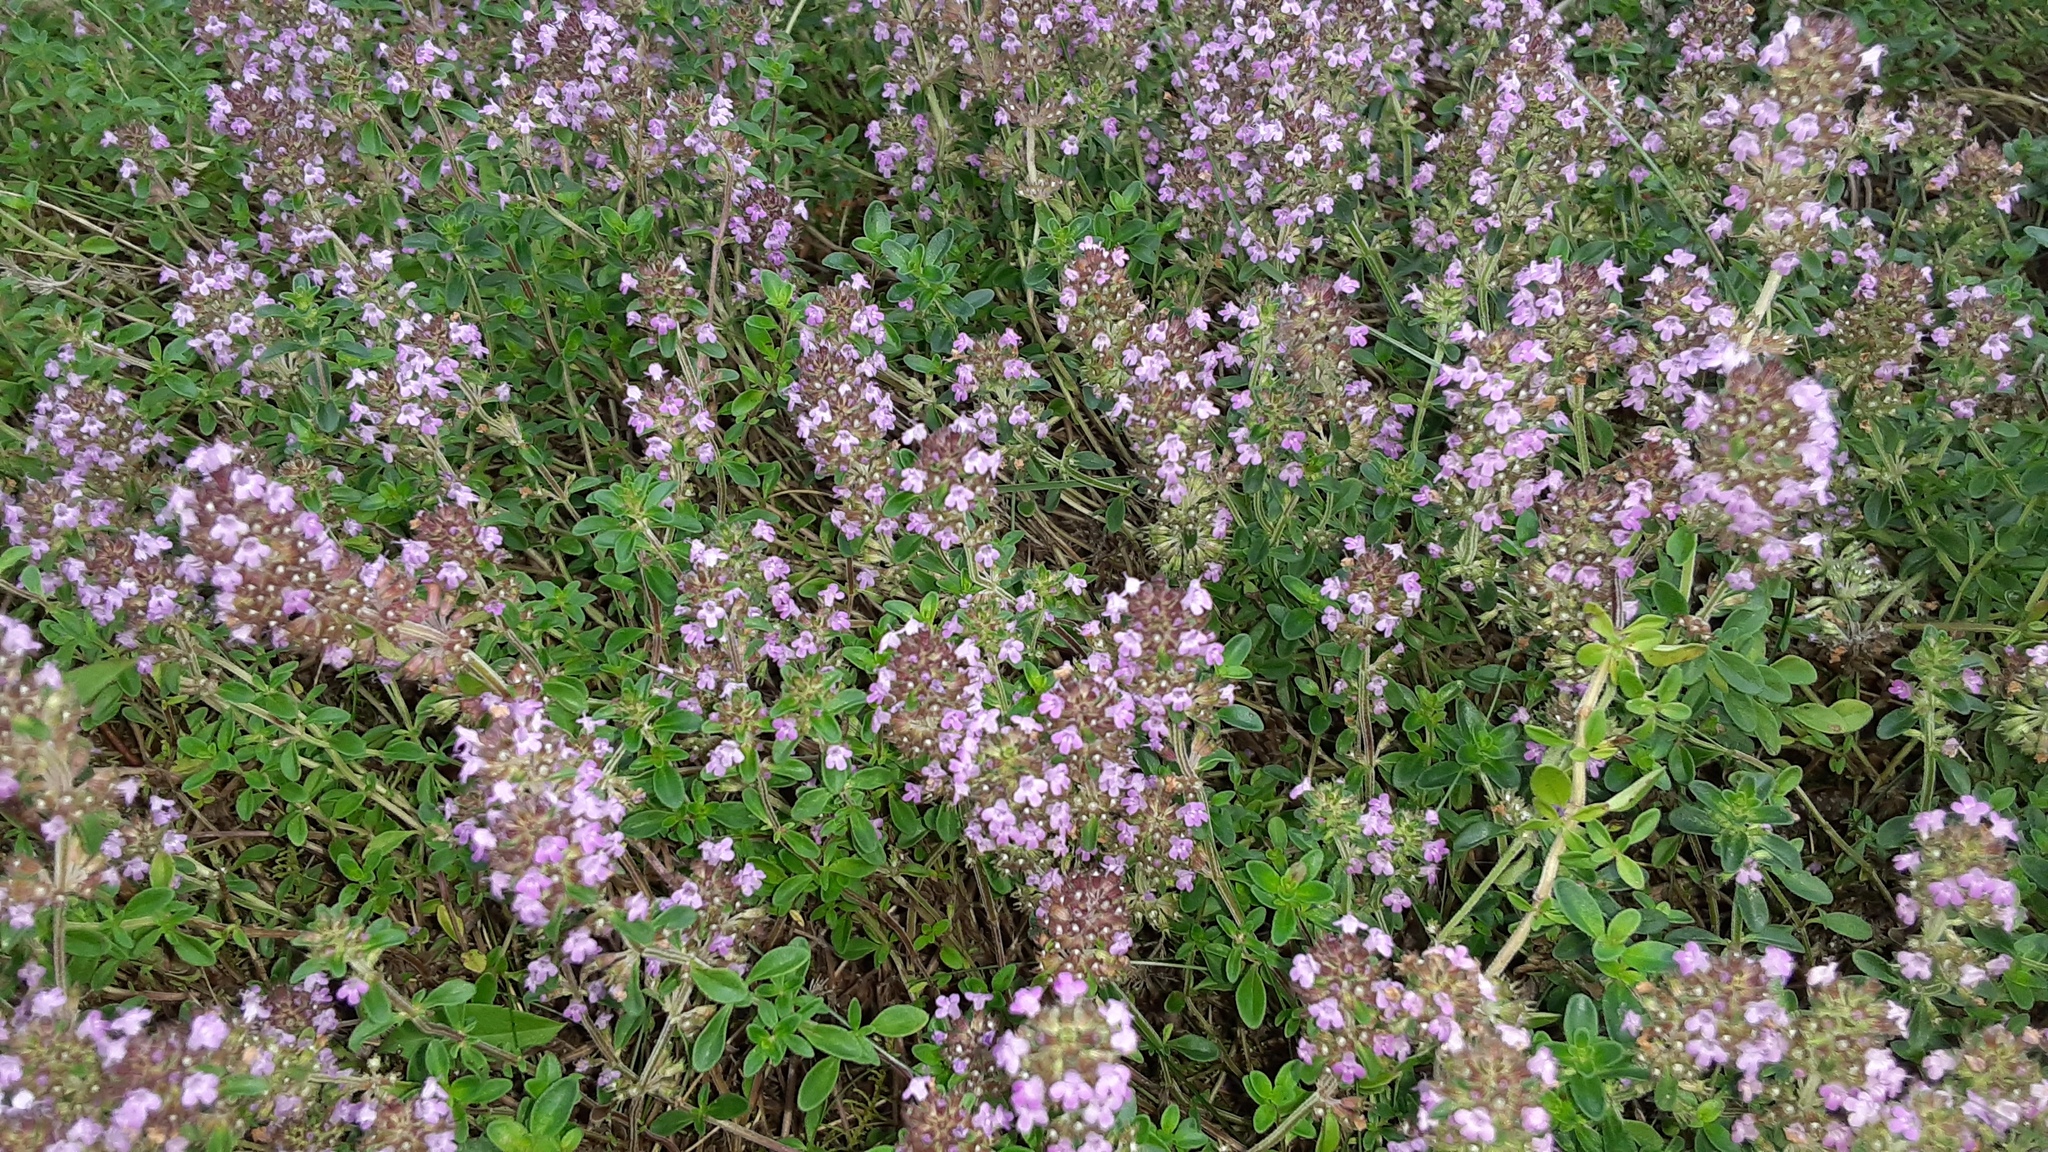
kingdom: Plantae
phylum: Tracheophyta
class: Magnoliopsida
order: Lamiales
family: Lamiaceae
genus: Thymus
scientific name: Thymus pulegioides
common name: Large thyme
